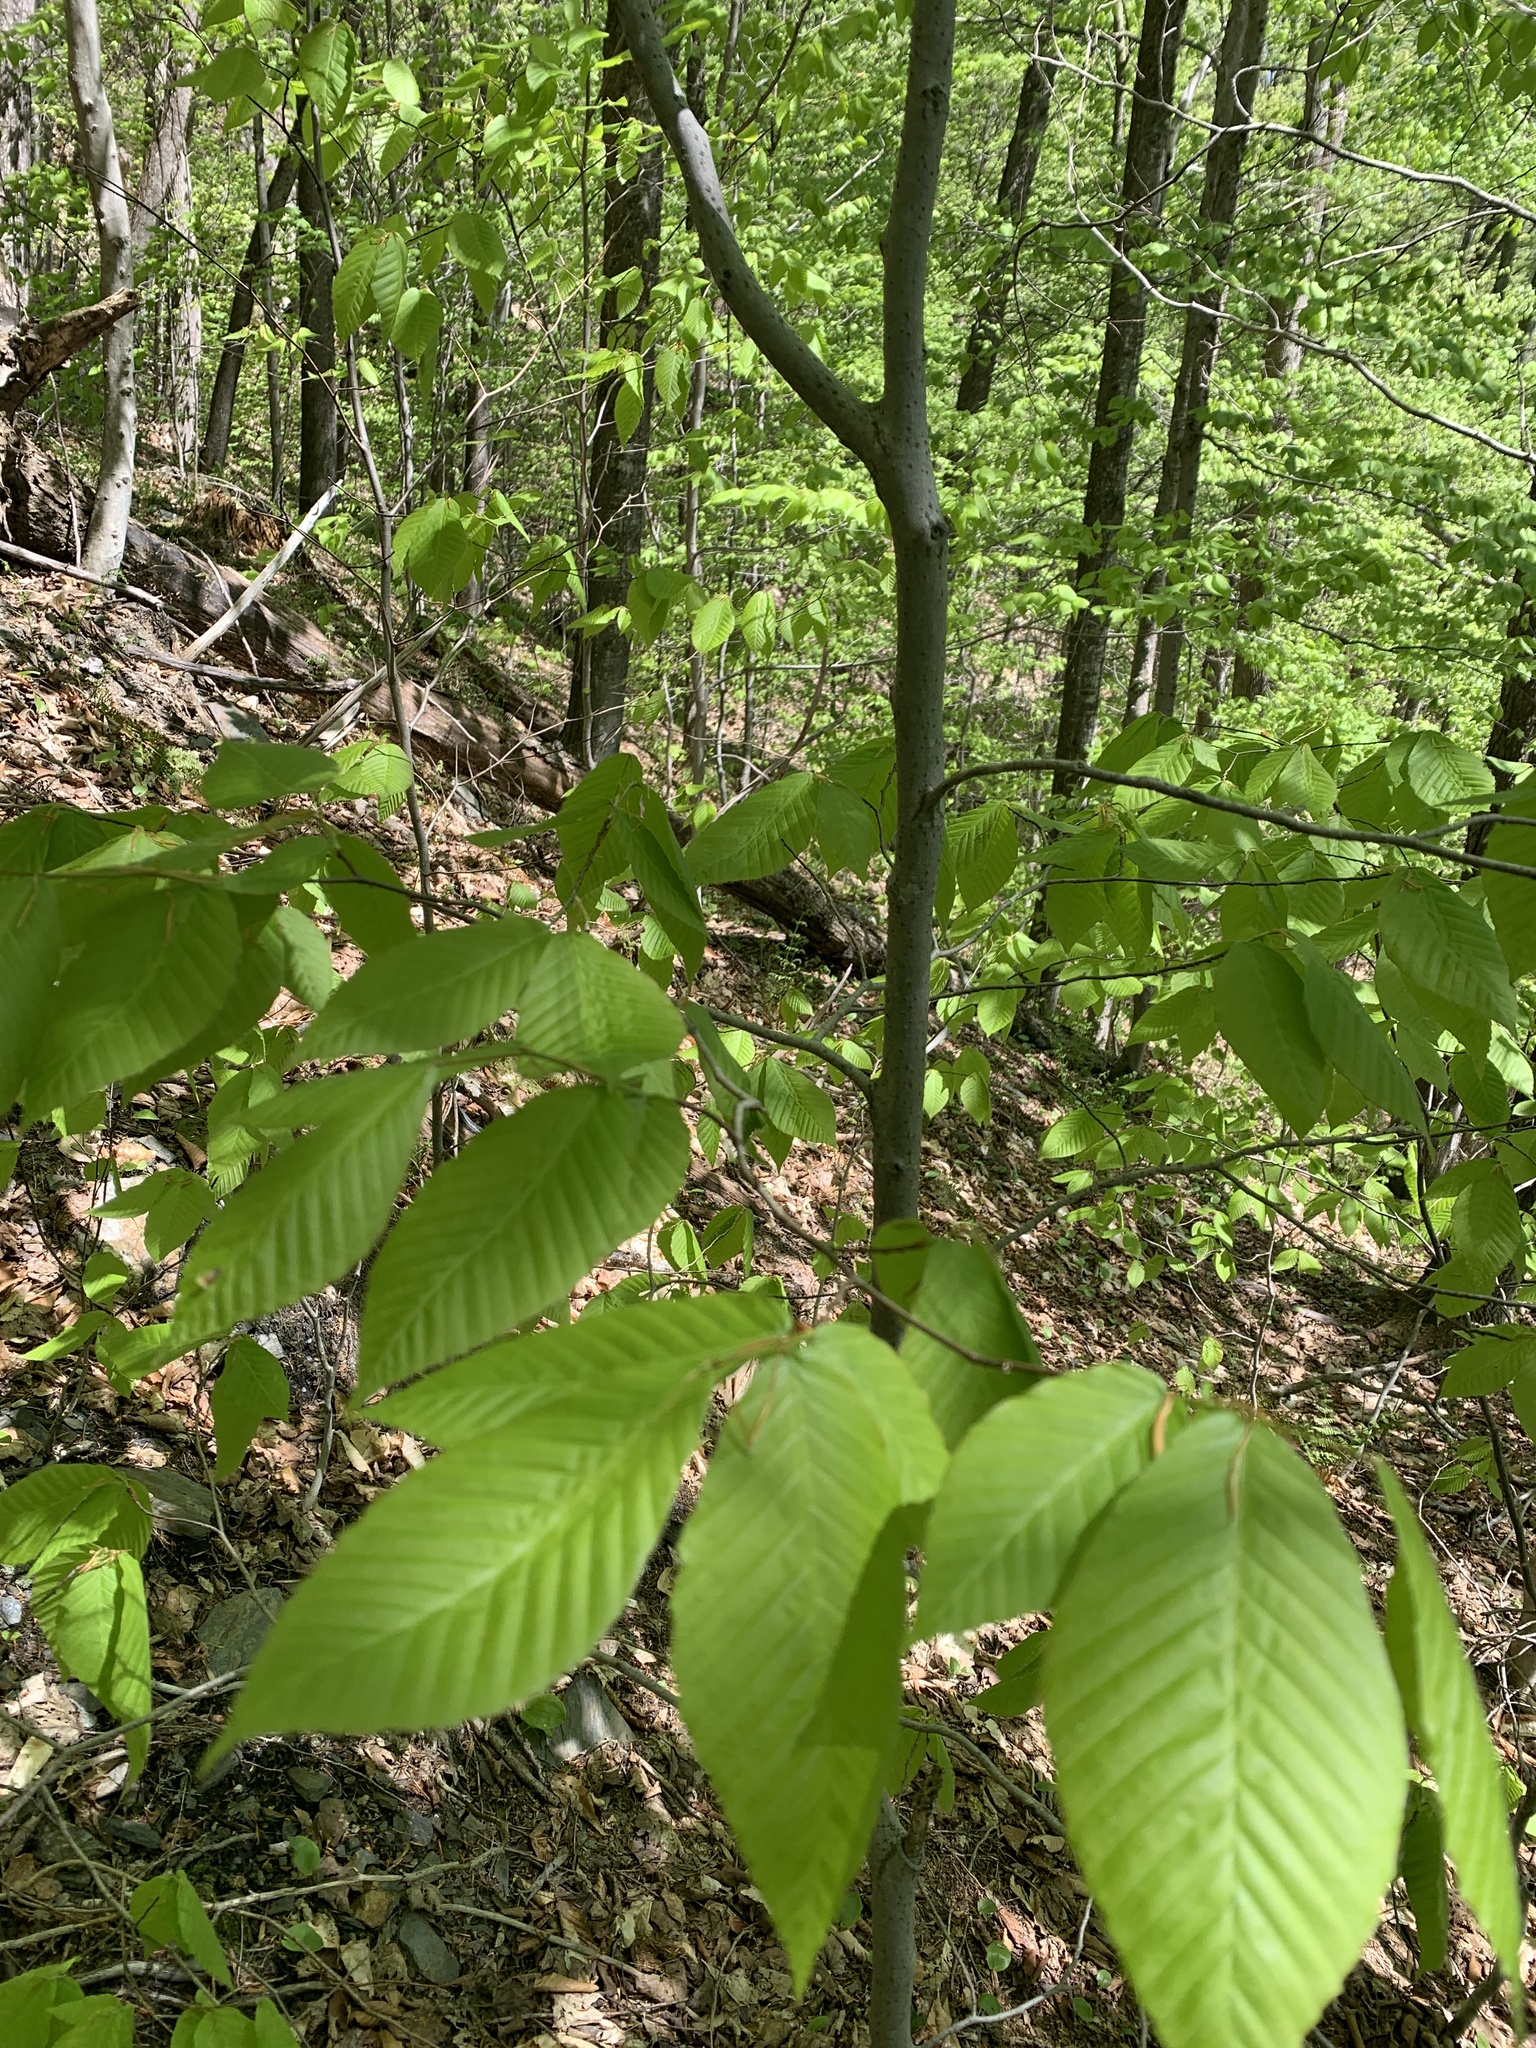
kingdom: Plantae
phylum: Tracheophyta
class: Magnoliopsida
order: Fagales
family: Fagaceae
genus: Fagus
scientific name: Fagus grandifolia
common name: American beech
